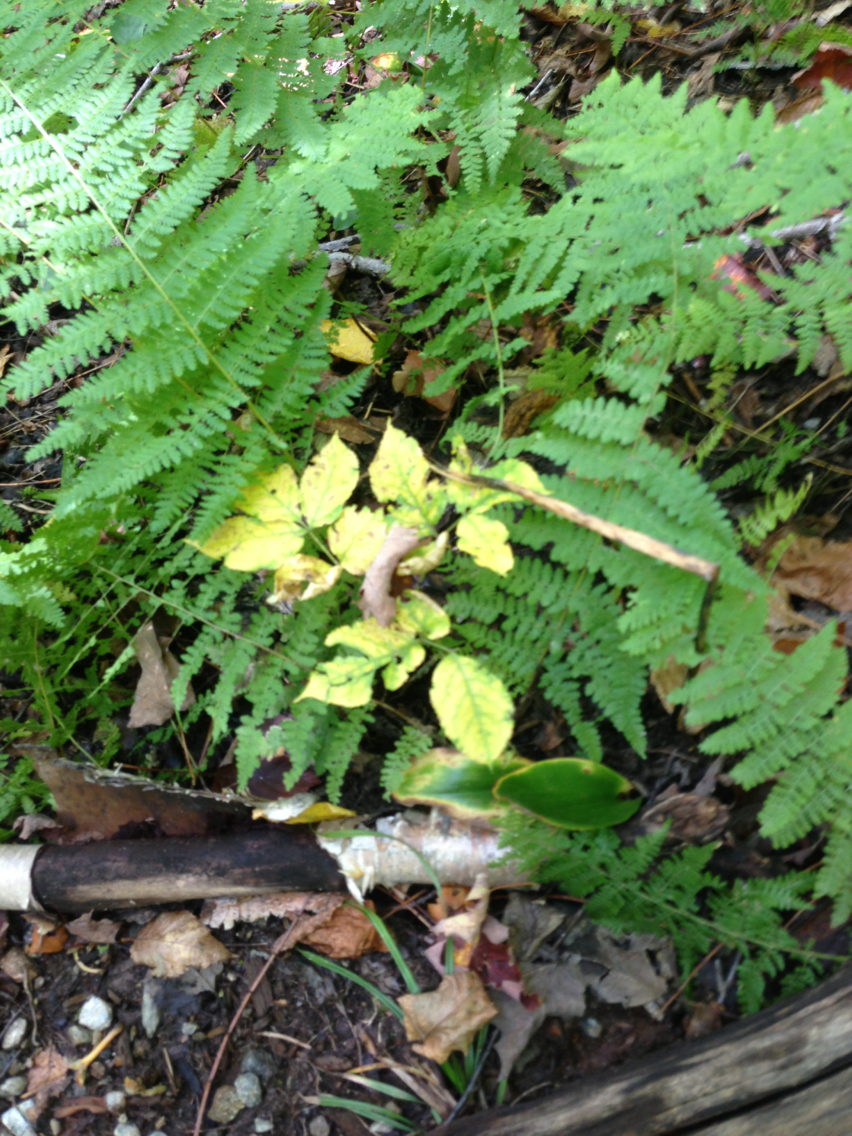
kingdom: Plantae
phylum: Tracheophyta
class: Magnoliopsida
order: Apiales
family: Araliaceae
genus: Aralia
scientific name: Aralia nudicaulis
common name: Wild sarsaparilla
